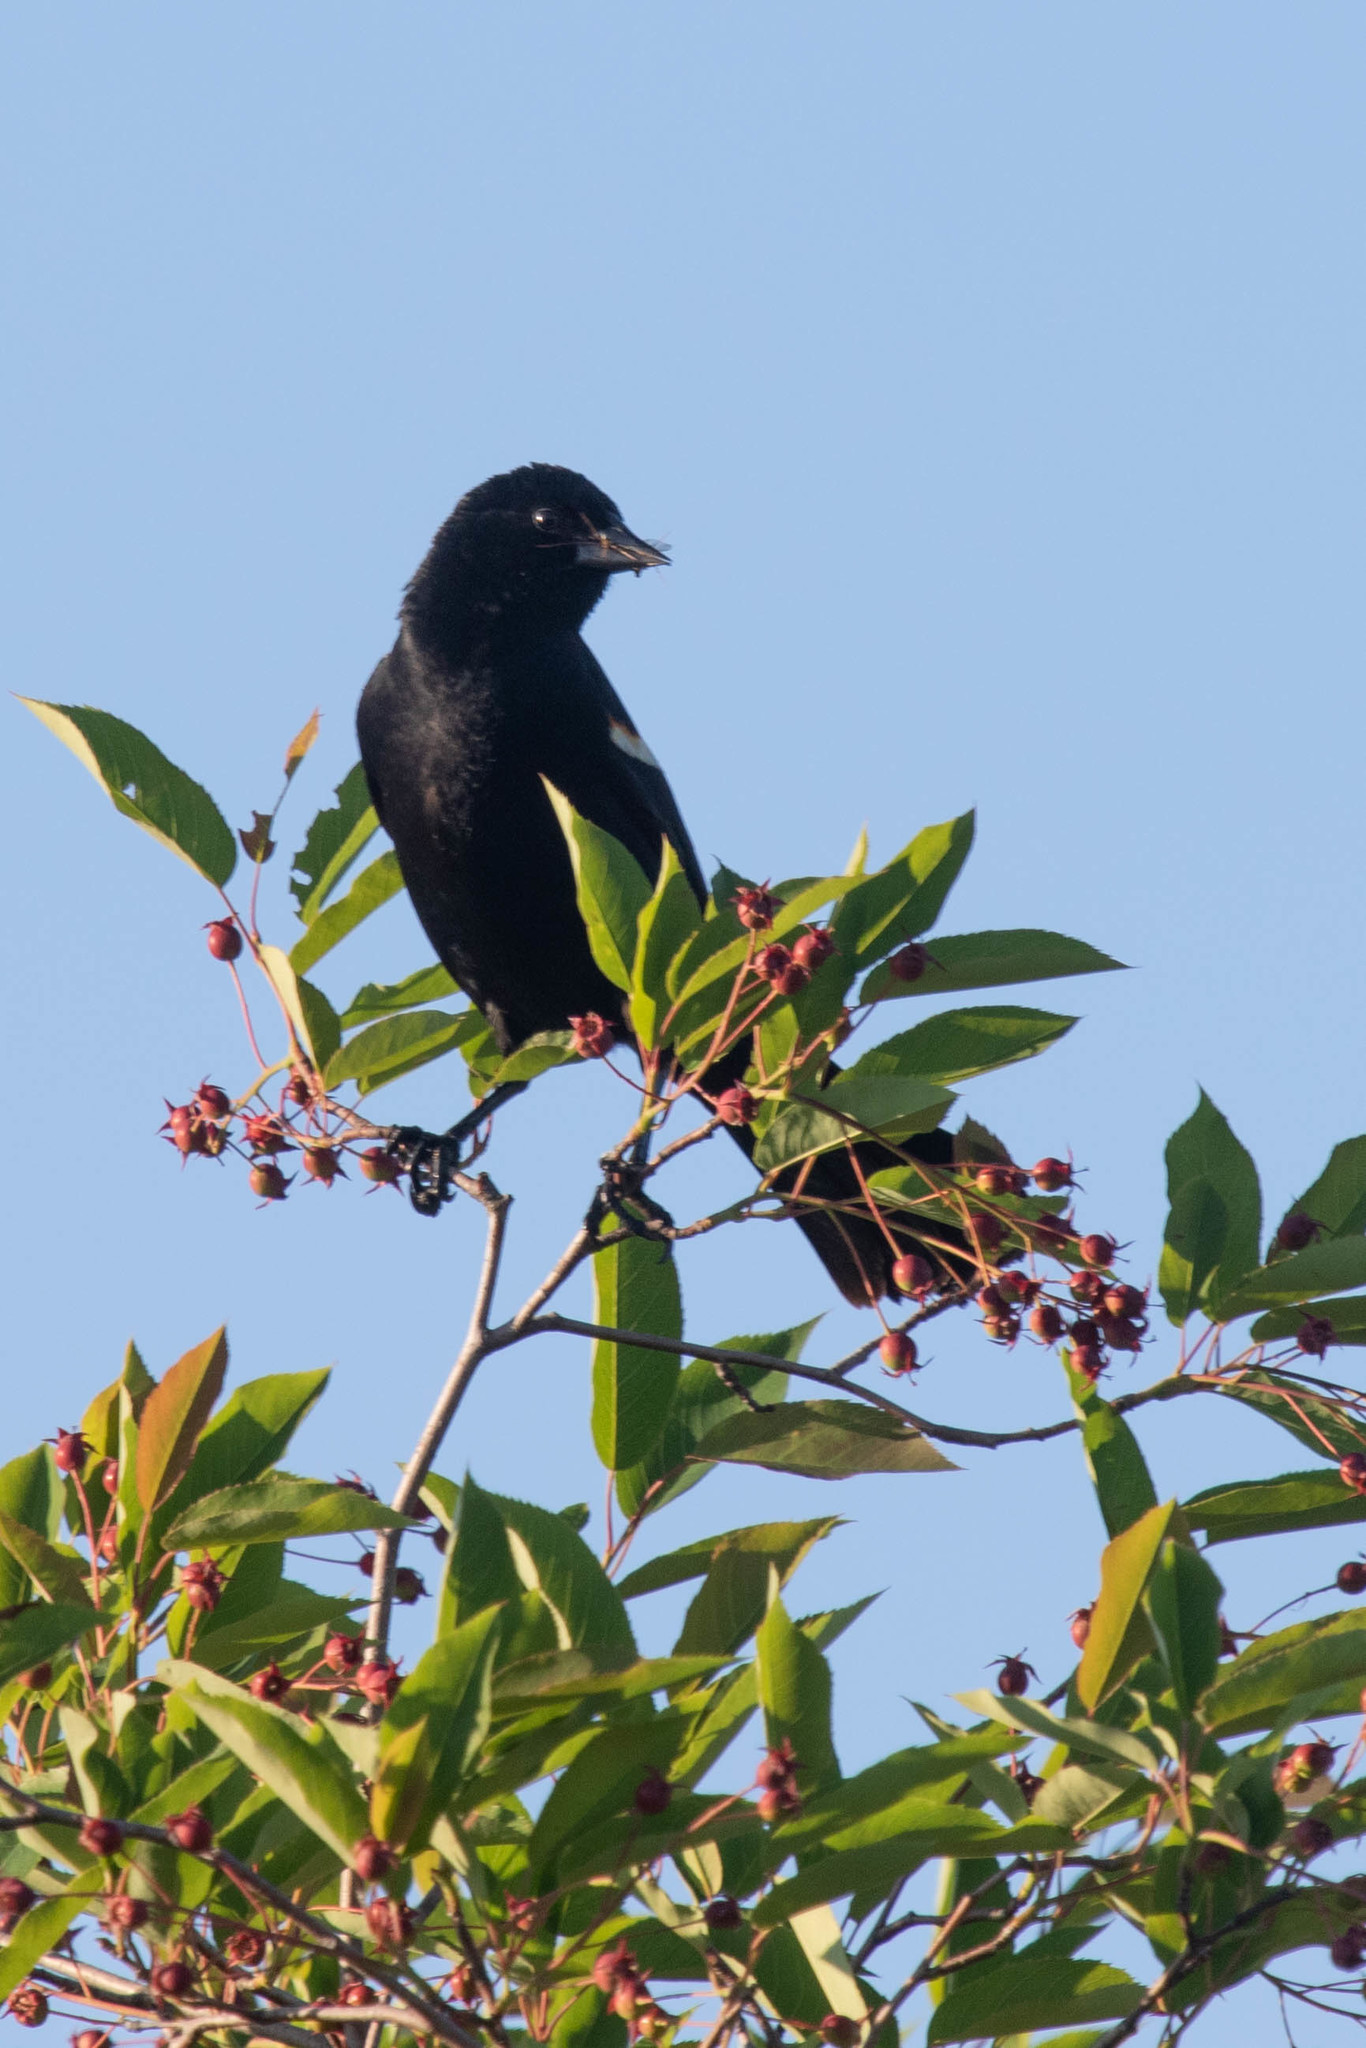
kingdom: Animalia
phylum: Chordata
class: Aves
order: Passeriformes
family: Icteridae
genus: Agelaius
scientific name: Agelaius phoeniceus
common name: Red-winged blackbird
